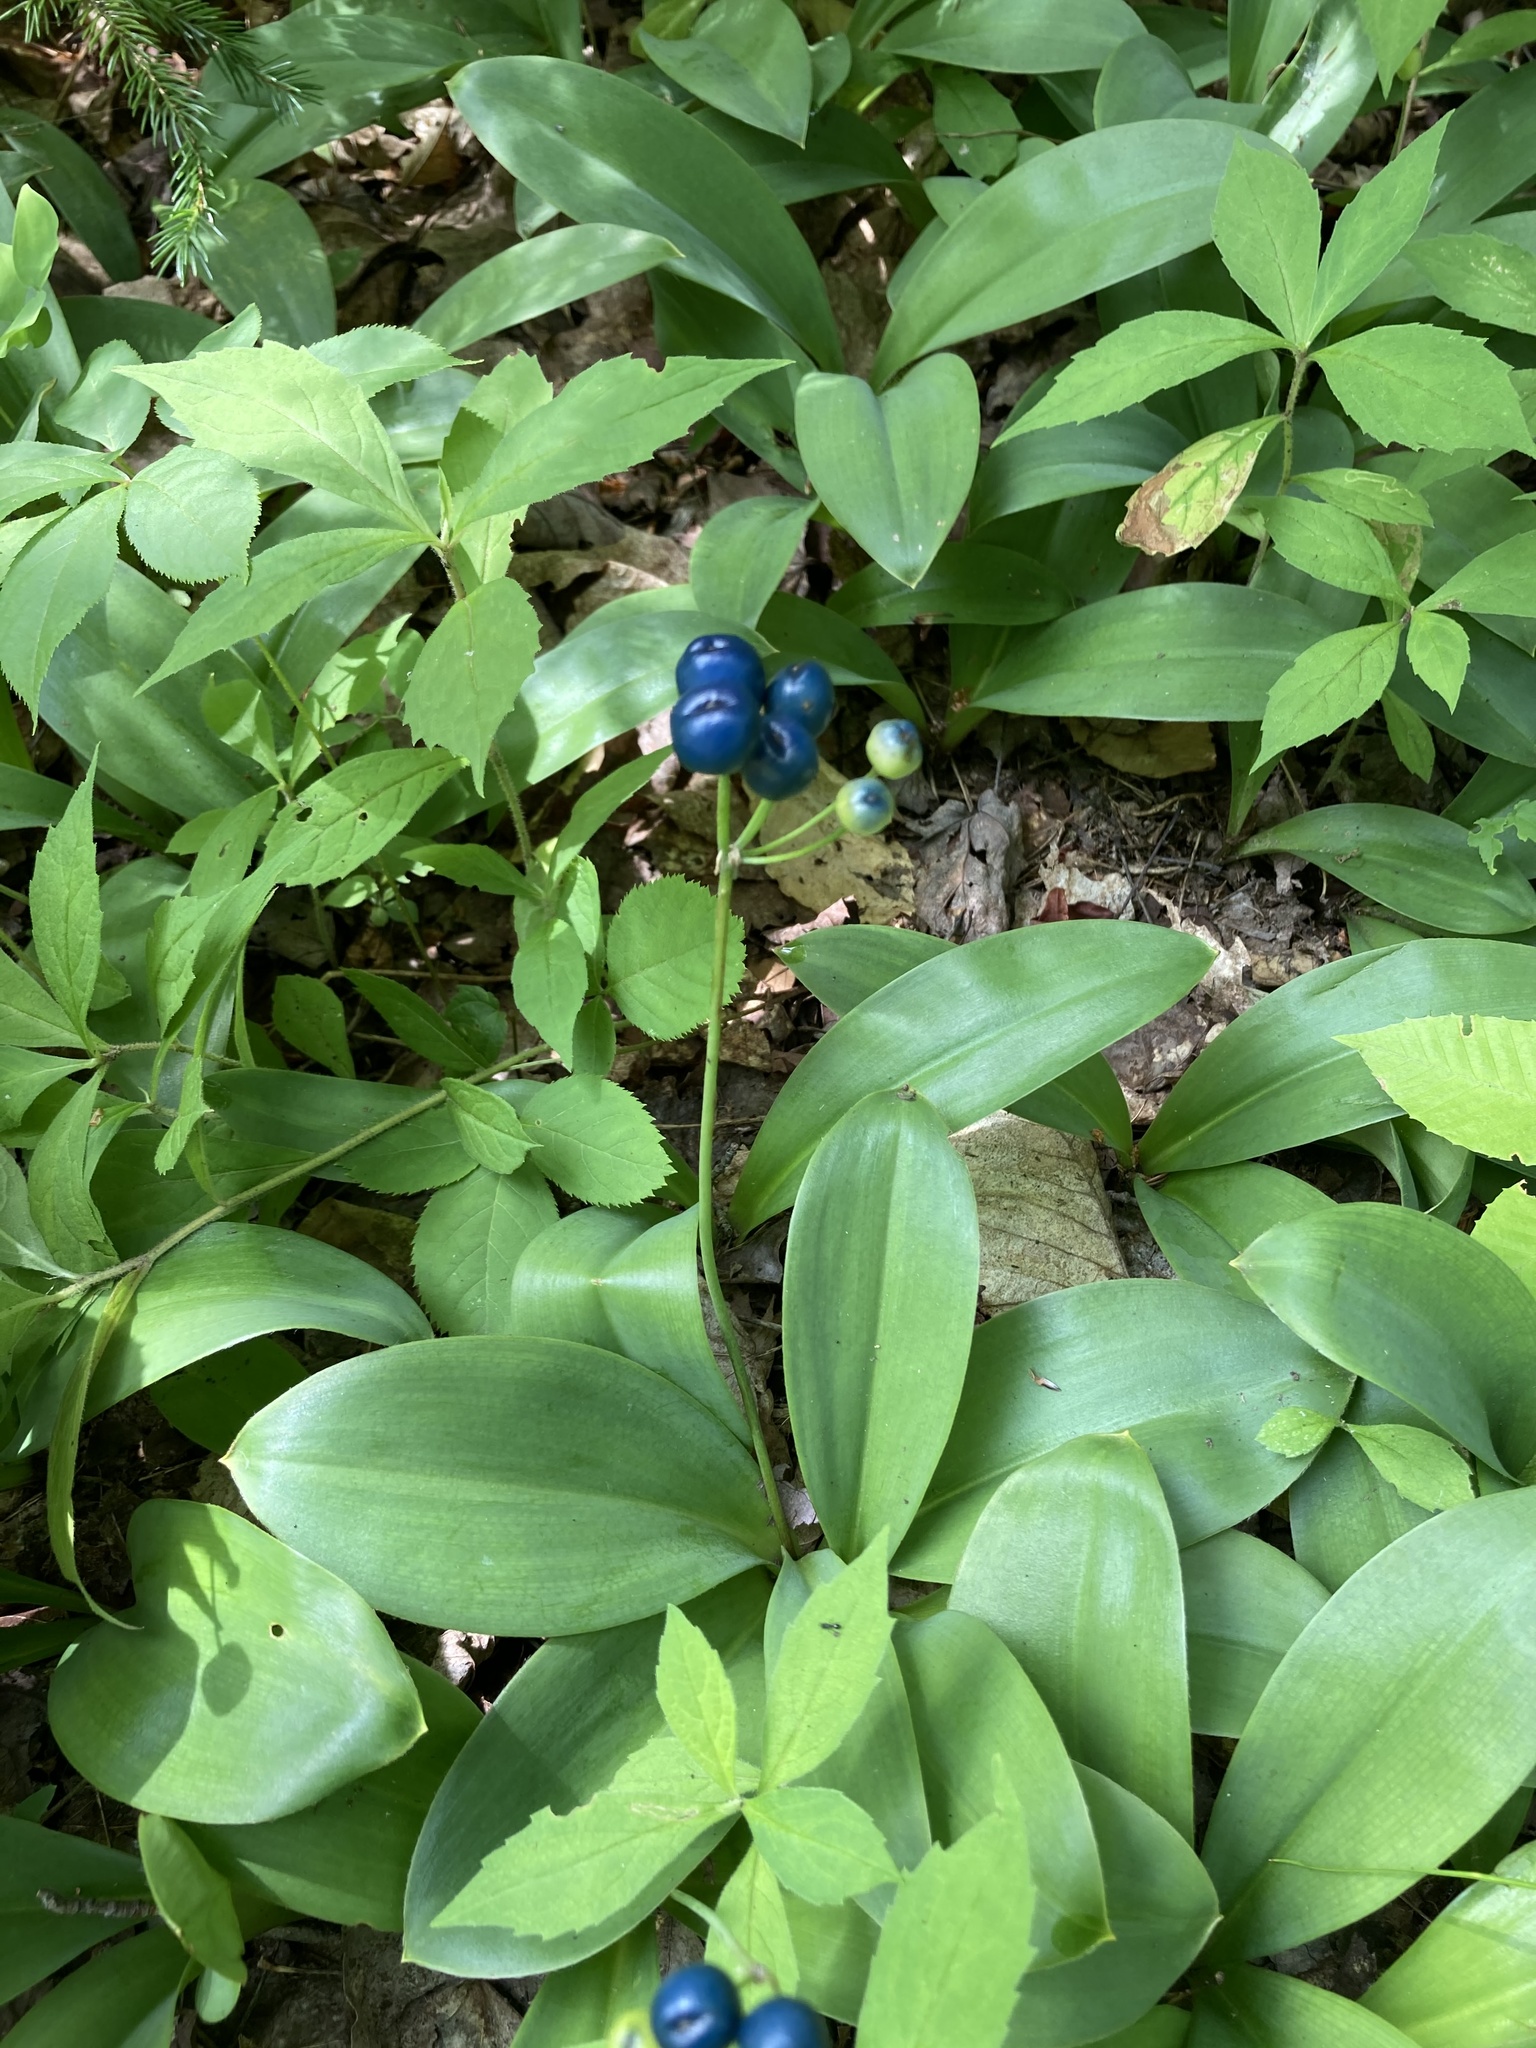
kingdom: Plantae
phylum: Tracheophyta
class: Liliopsida
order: Liliales
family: Liliaceae
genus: Clintonia
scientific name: Clintonia borealis
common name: Yellow clintonia
